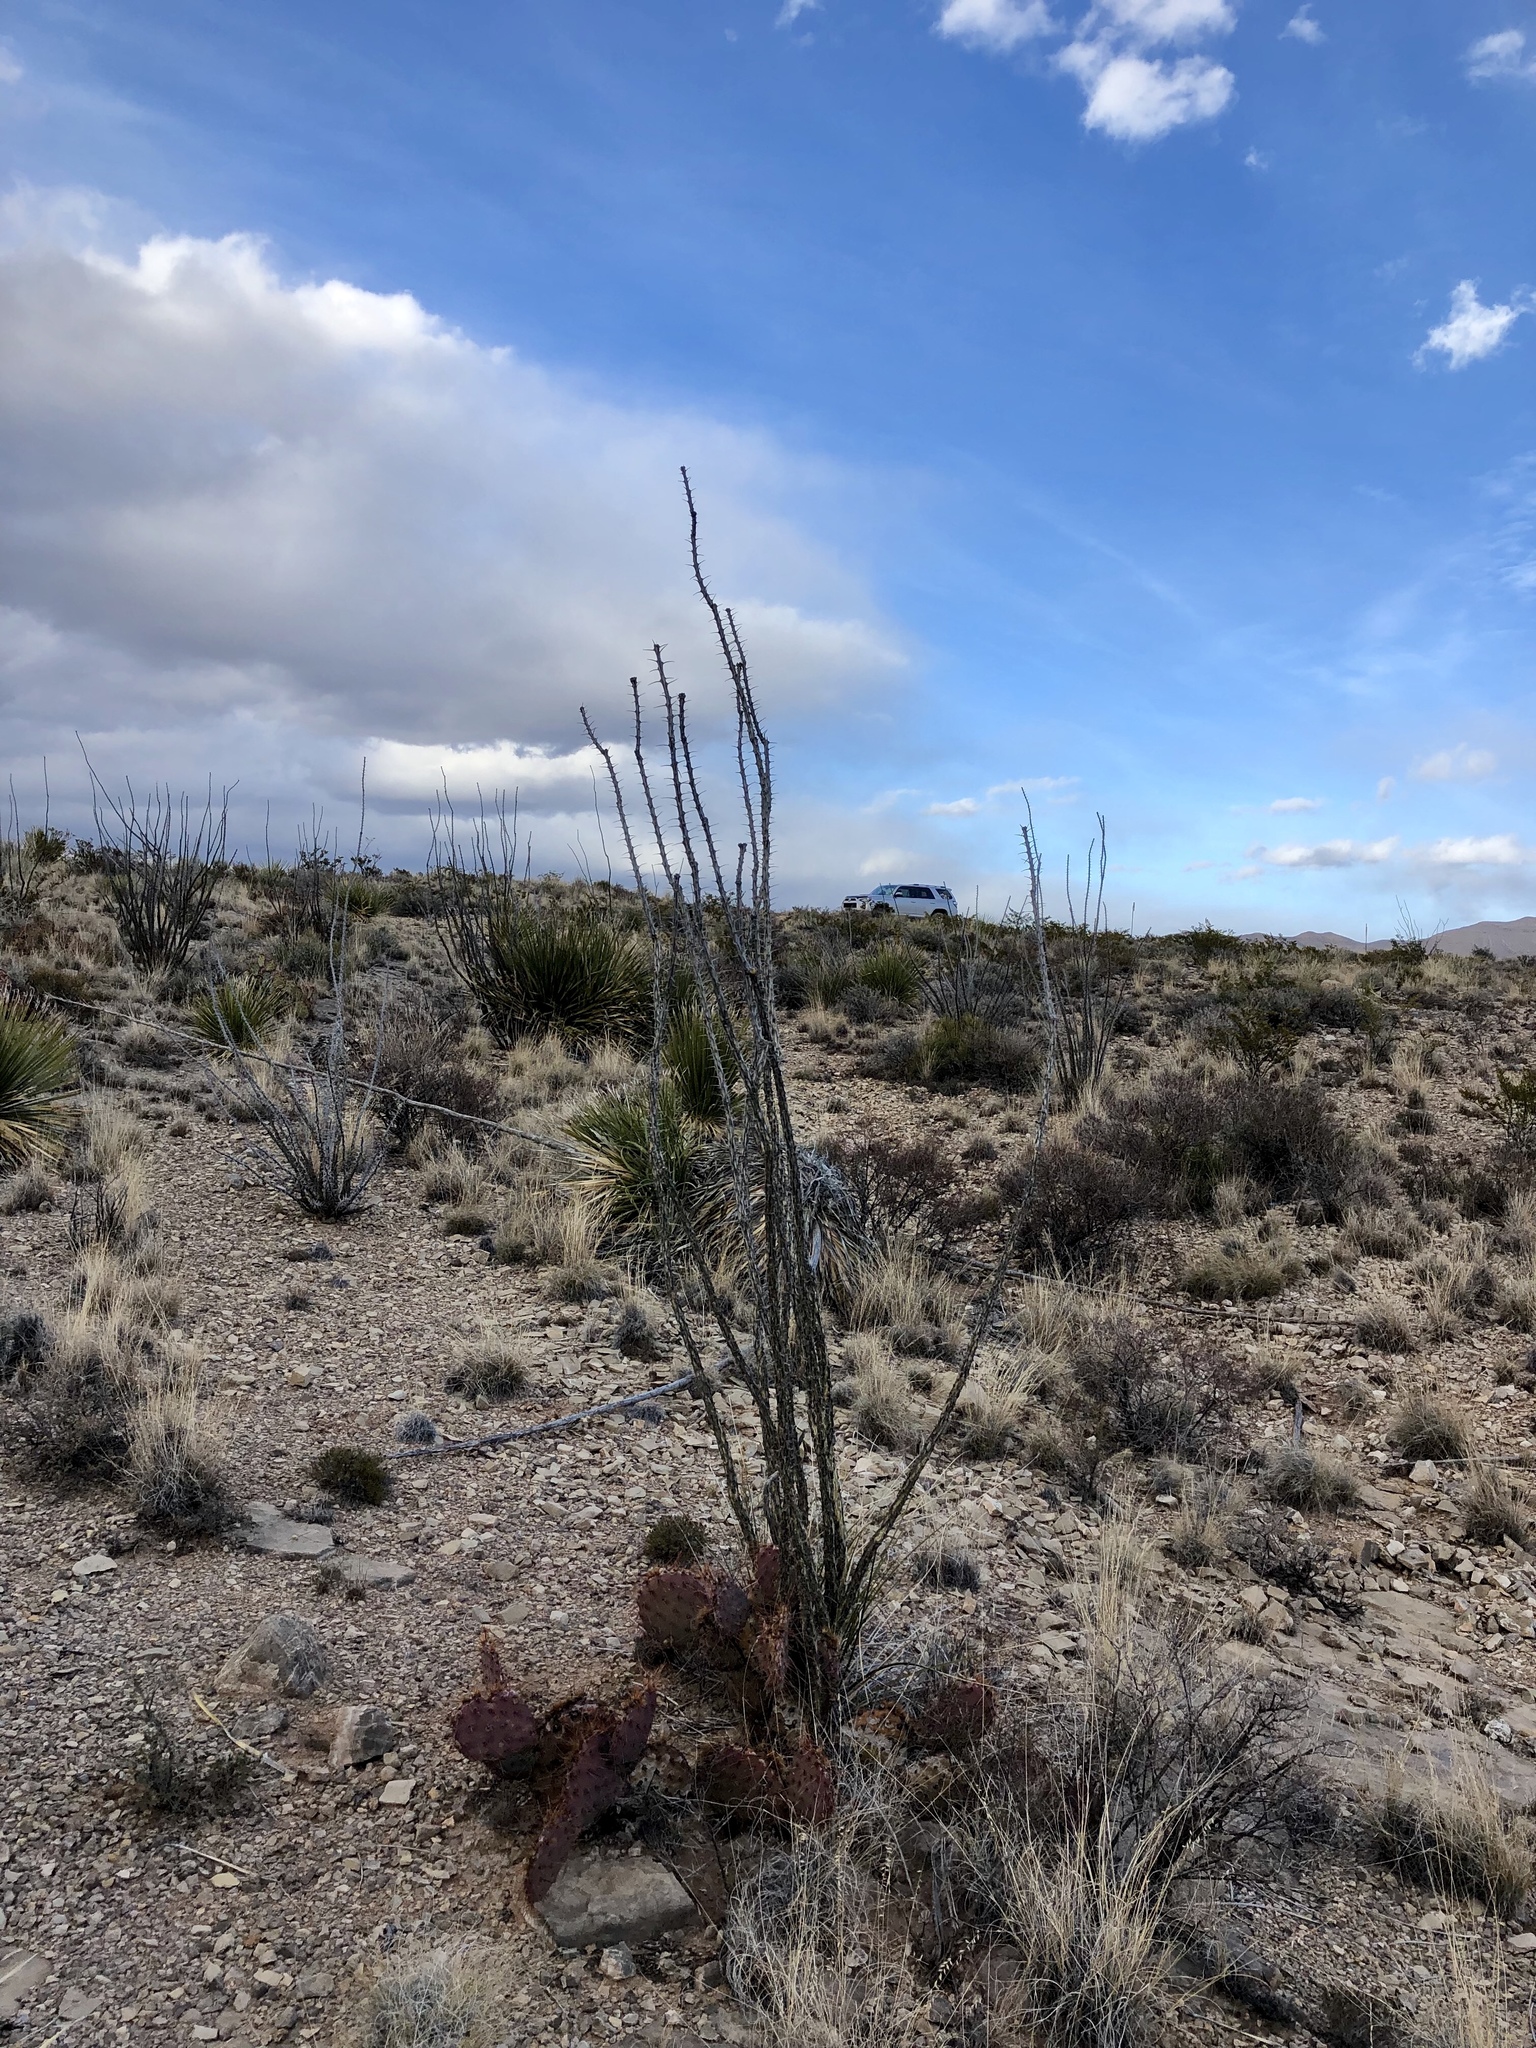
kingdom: Plantae
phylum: Tracheophyta
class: Magnoliopsida
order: Ericales
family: Fouquieriaceae
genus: Fouquieria
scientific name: Fouquieria splendens
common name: Vine-cactus
